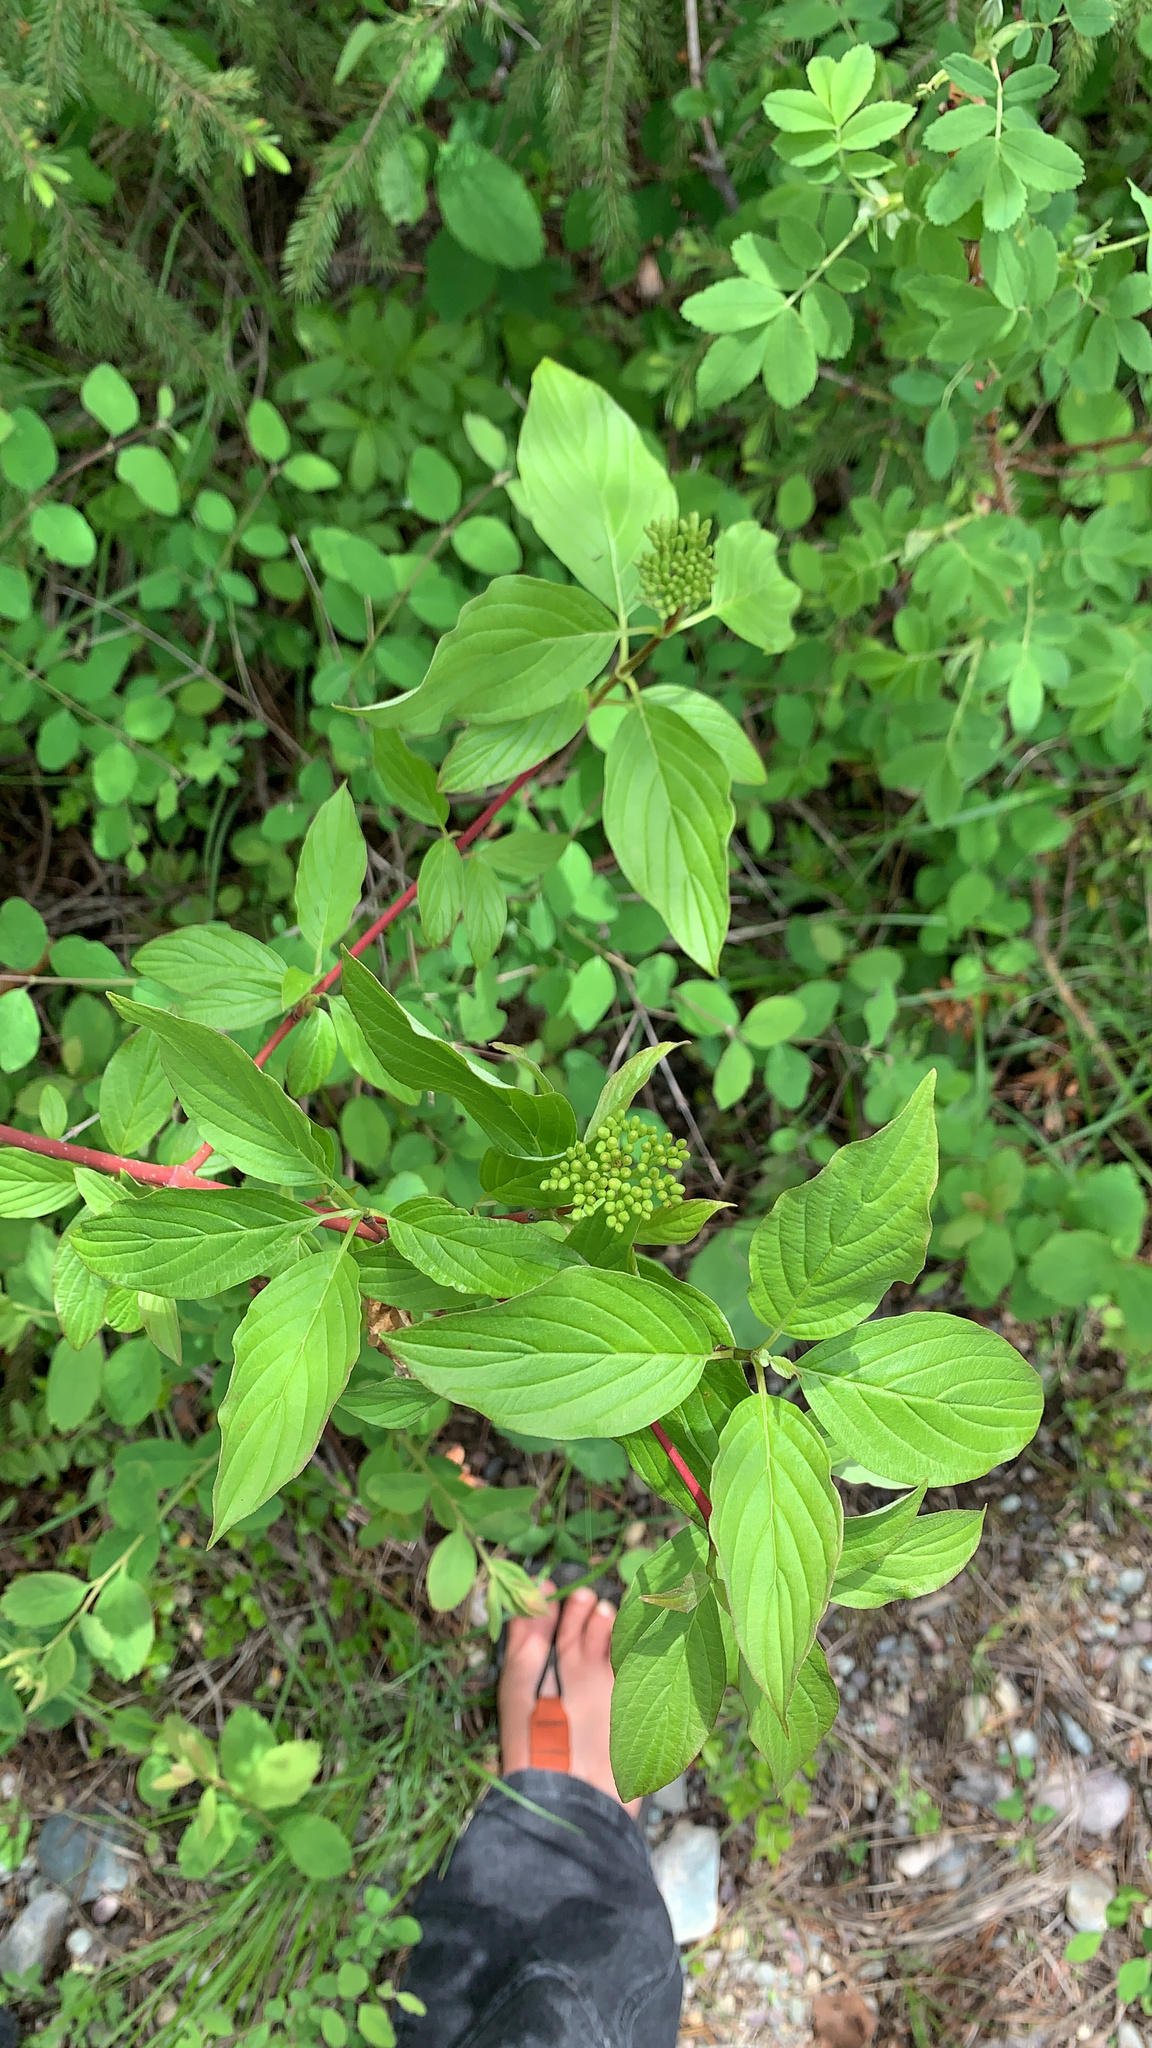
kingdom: Plantae
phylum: Tracheophyta
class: Magnoliopsida
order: Cornales
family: Cornaceae
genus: Cornus
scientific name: Cornus sericea
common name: Red-osier dogwood
